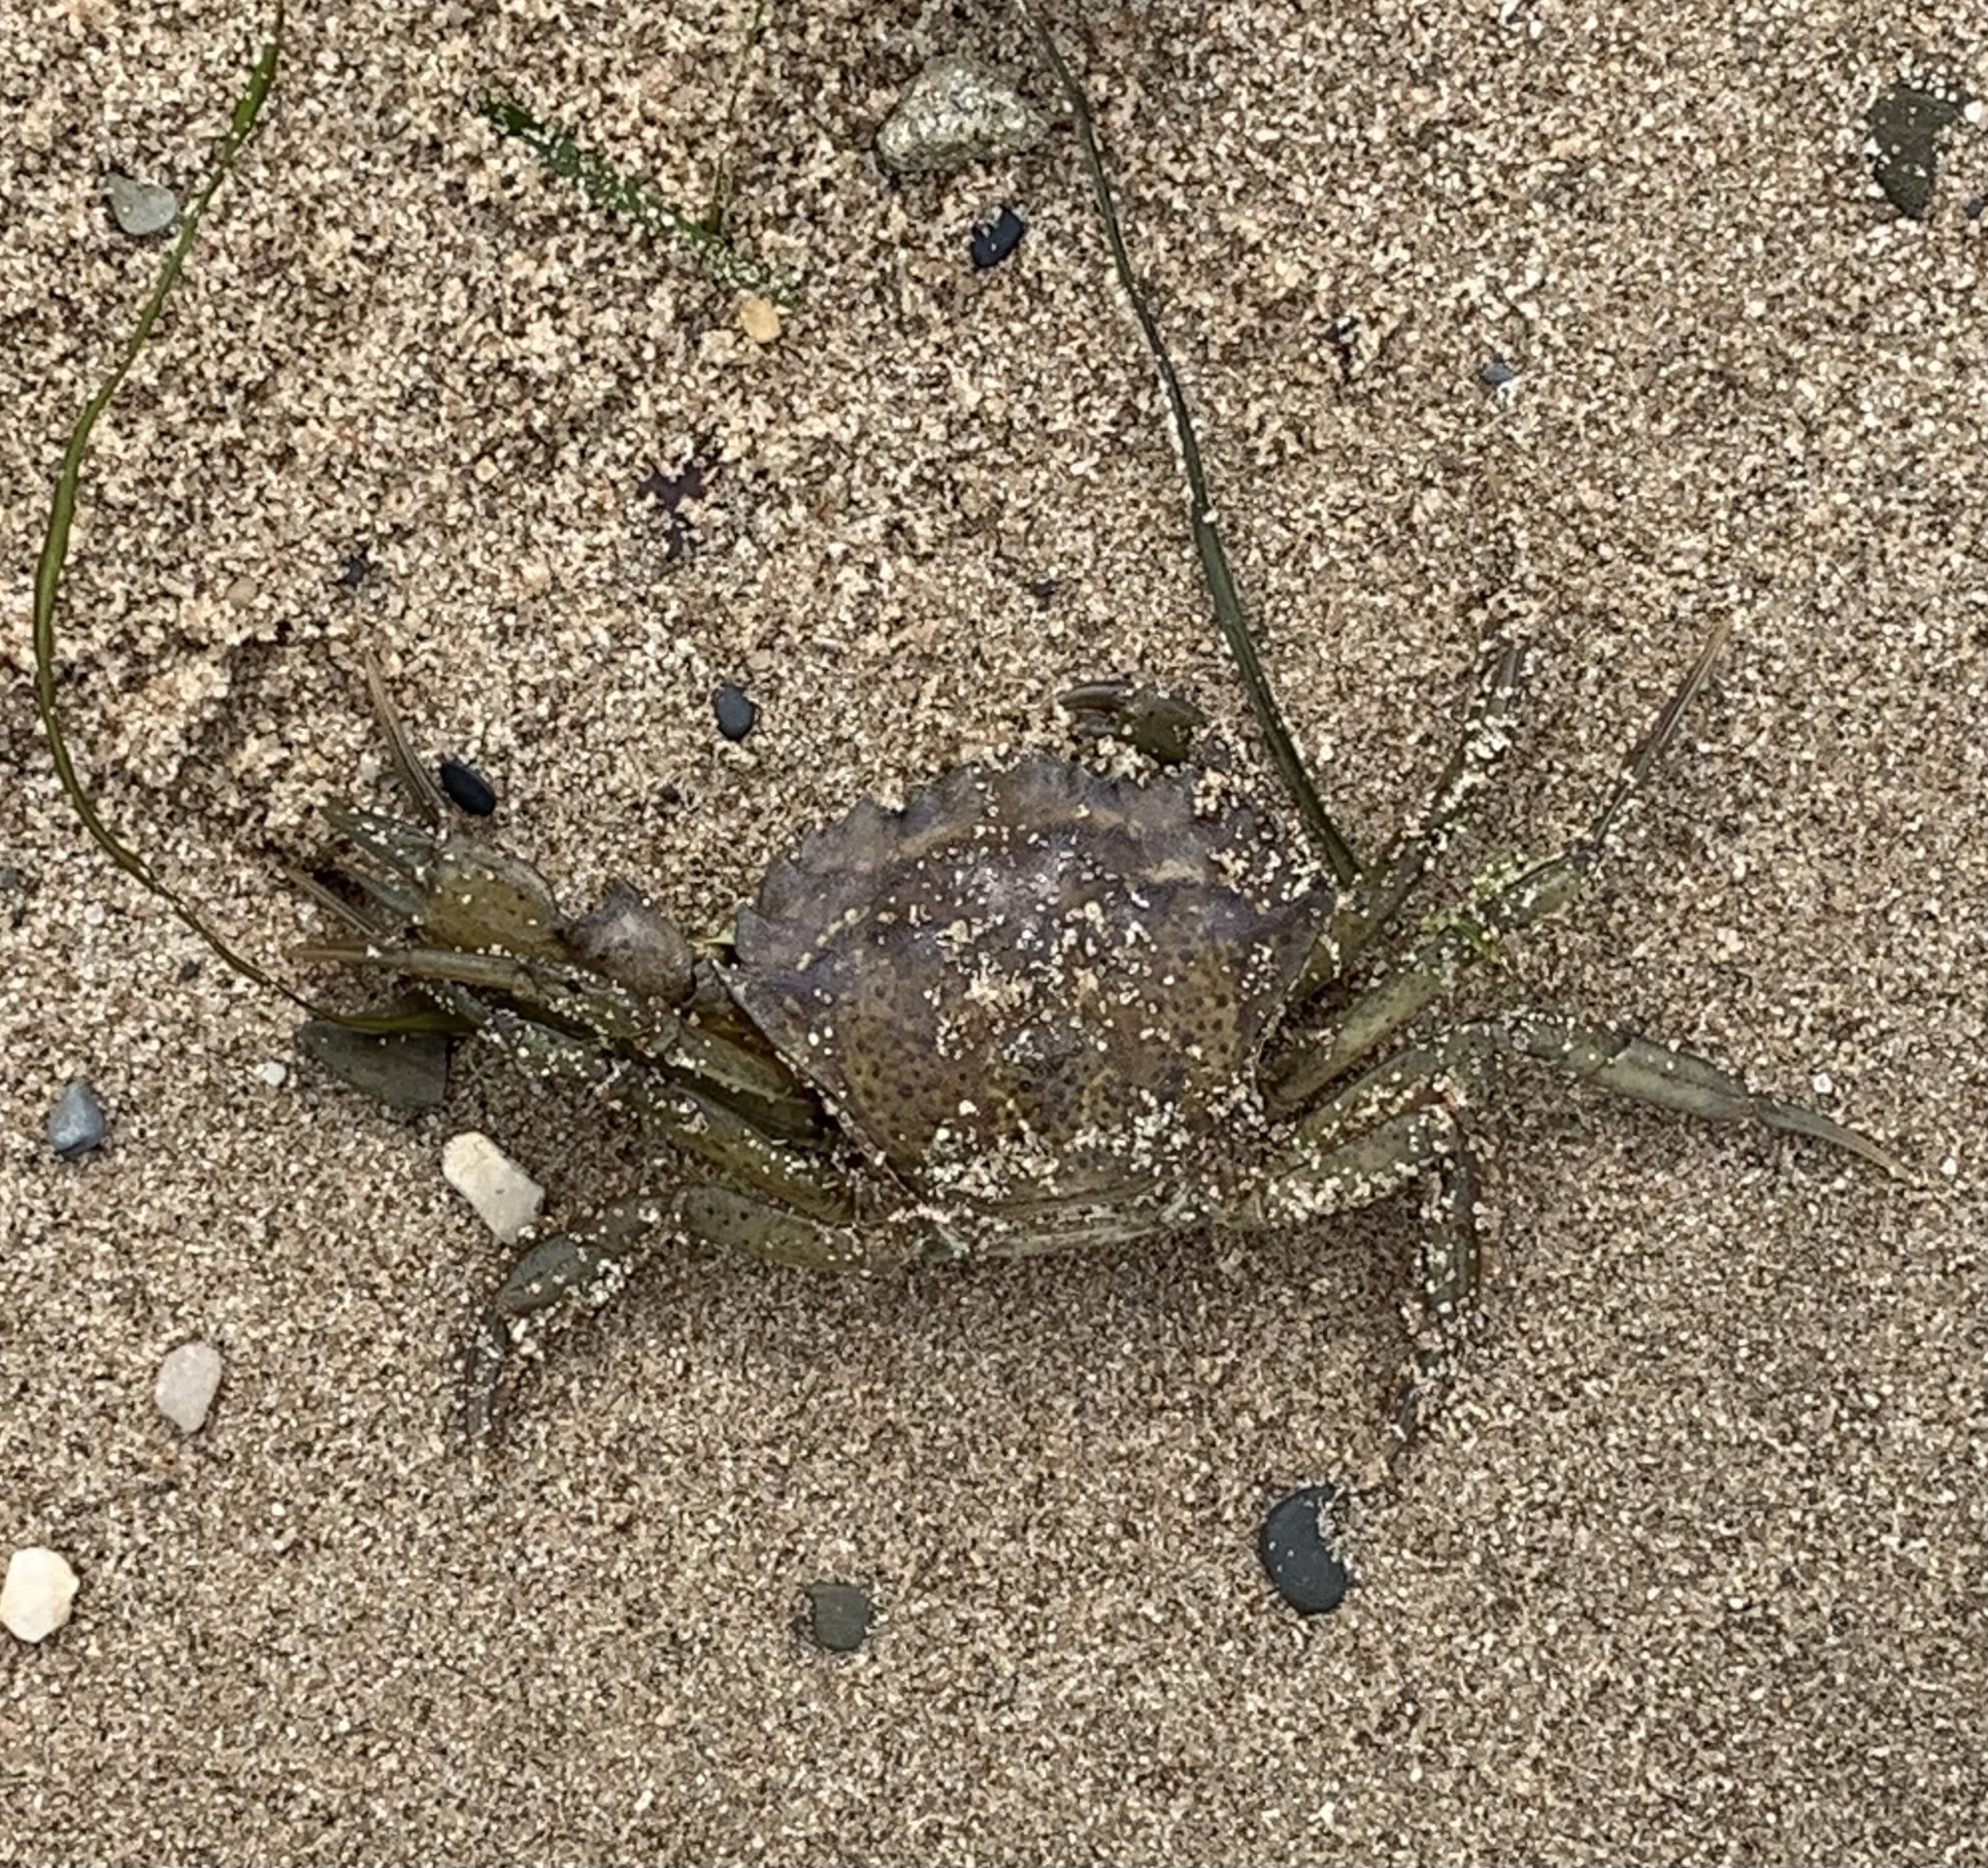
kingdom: Animalia
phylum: Arthropoda
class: Malacostraca
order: Decapoda
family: Carcinidae
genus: Carcinus
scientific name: Carcinus maenas
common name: European green crab
